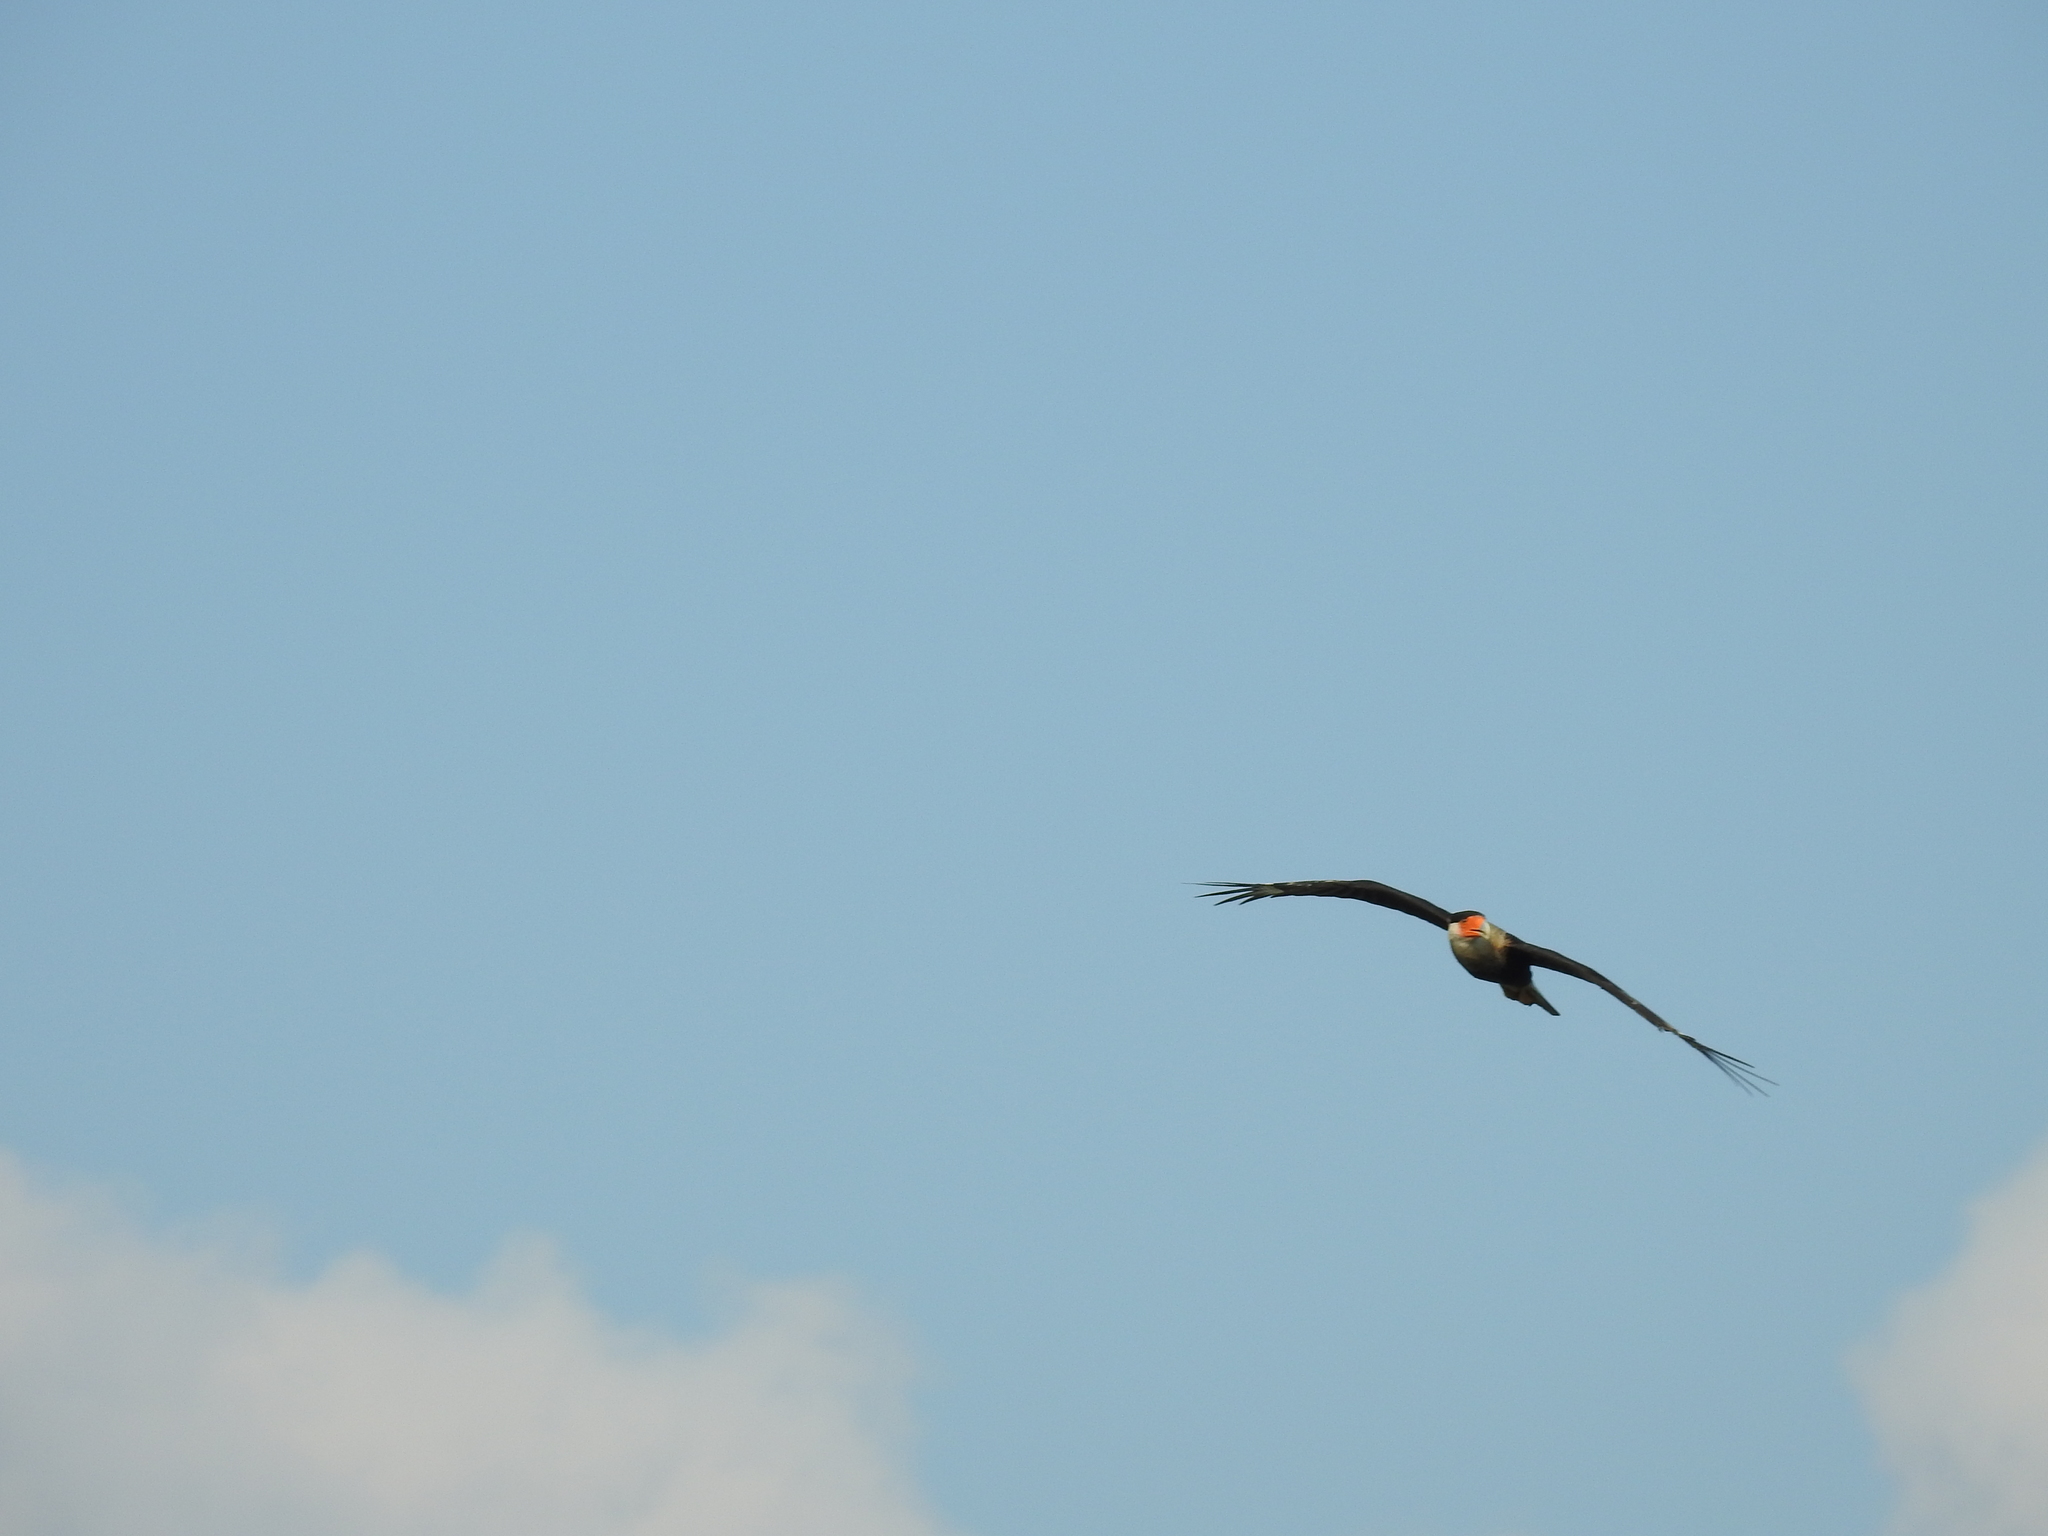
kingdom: Animalia
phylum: Chordata
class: Aves
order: Falconiformes
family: Falconidae
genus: Caracara
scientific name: Caracara plancus
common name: Southern caracara
